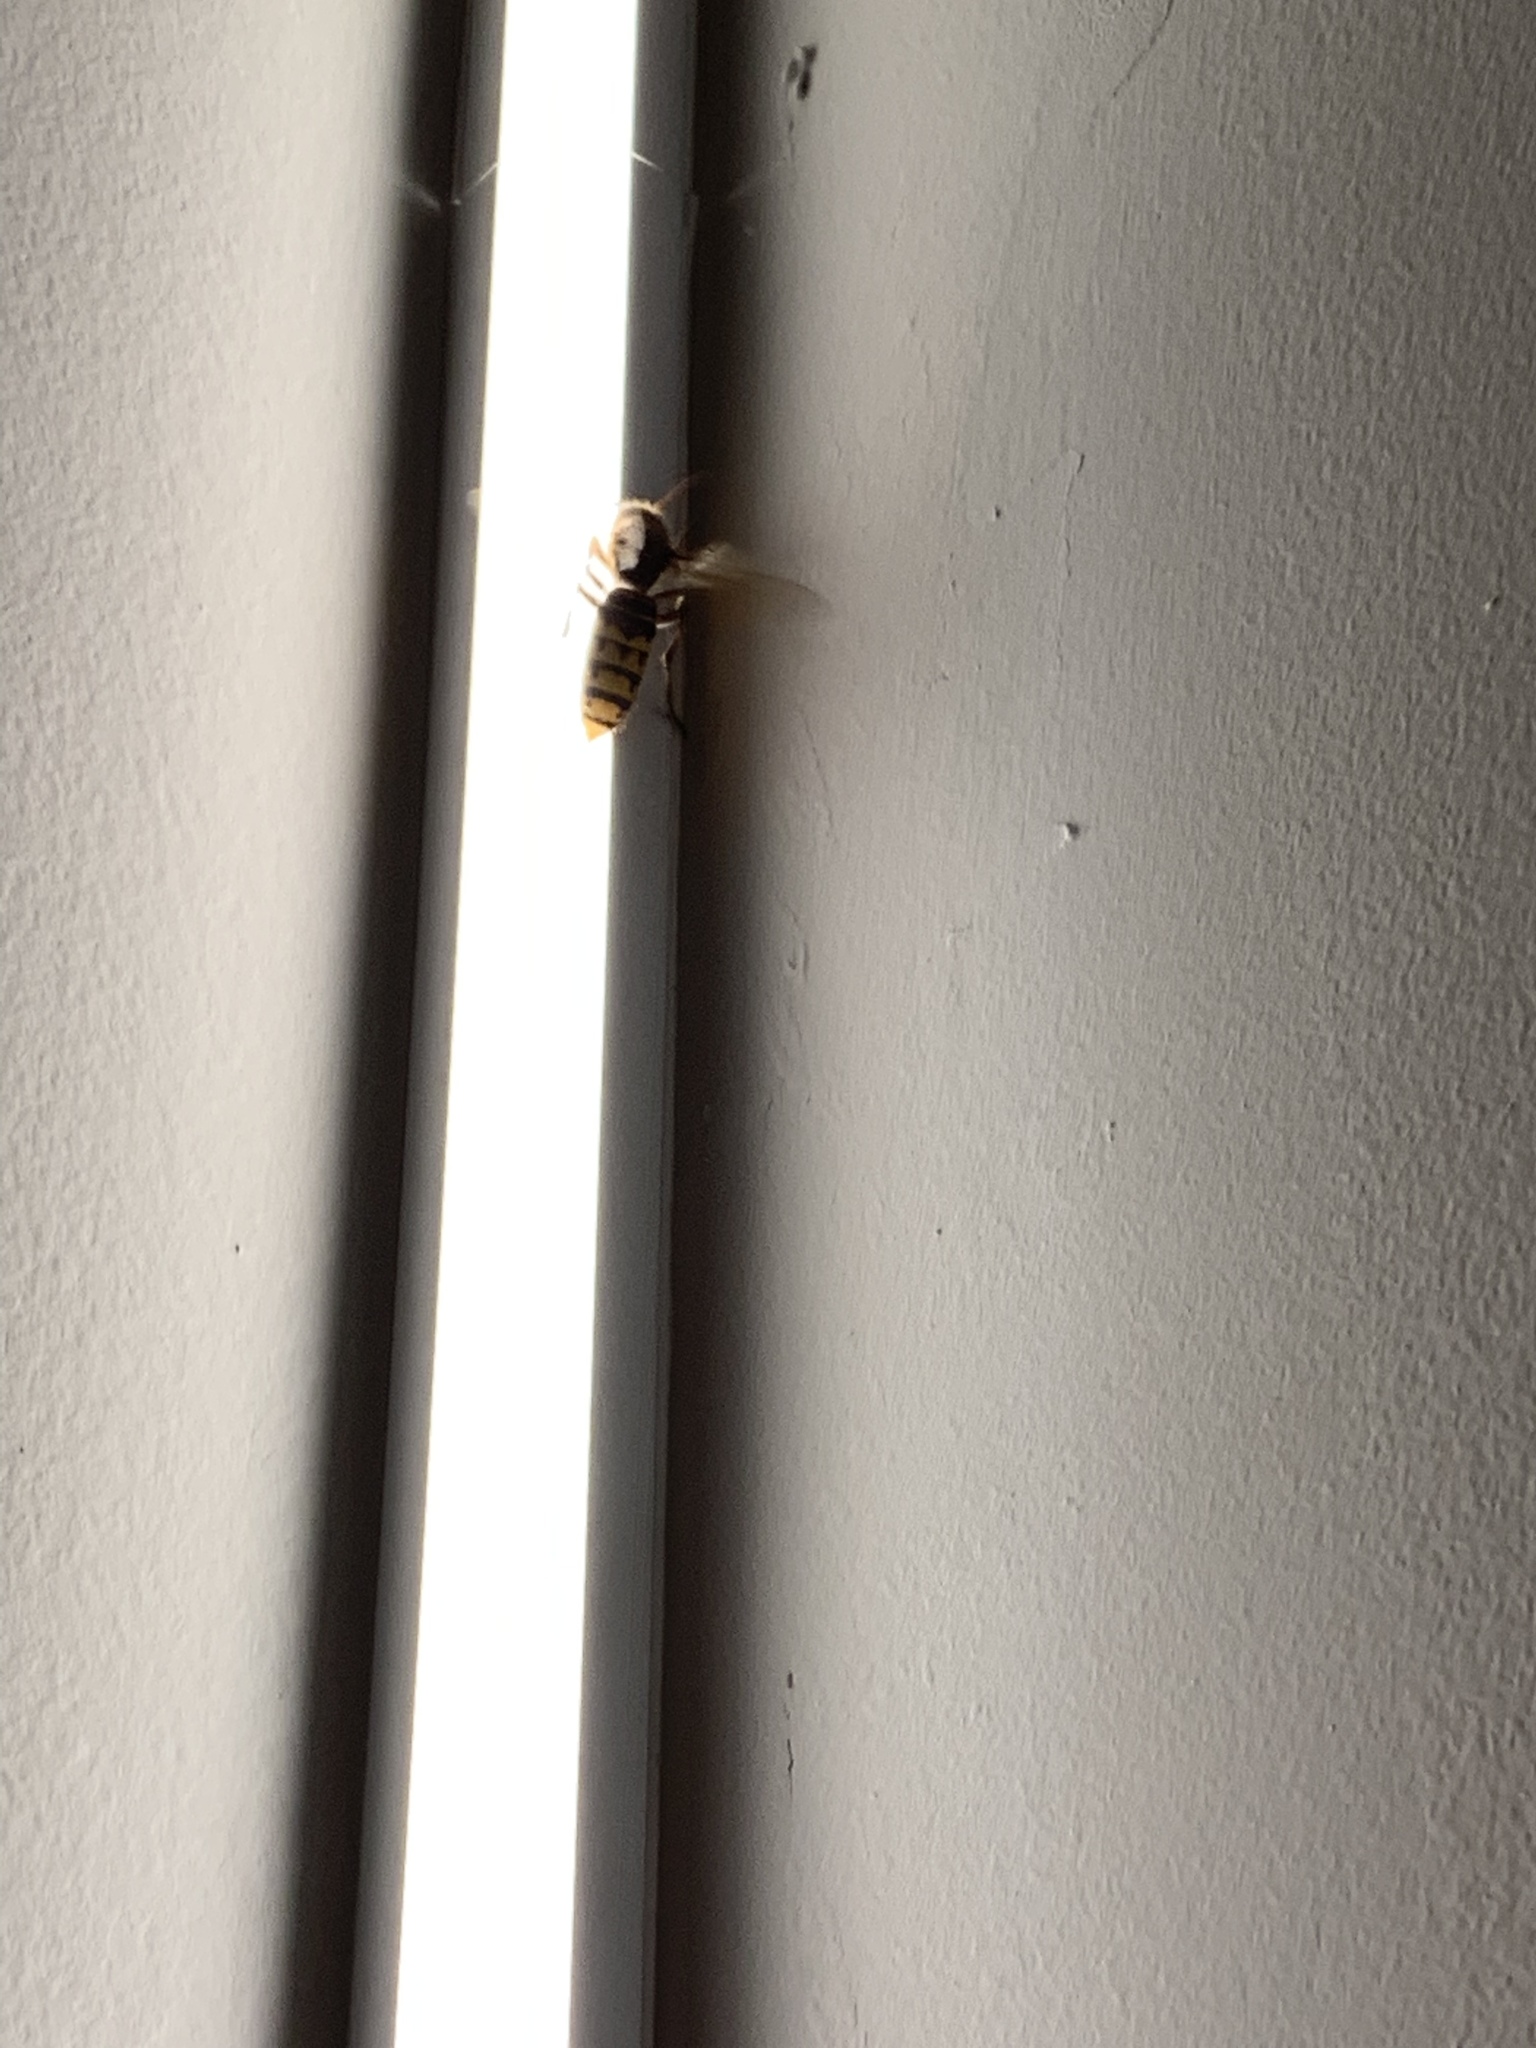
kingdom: Animalia
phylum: Arthropoda
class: Insecta
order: Hymenoptera
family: Vespidae
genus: Vespa
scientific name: Vespa crabro
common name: Hornet
